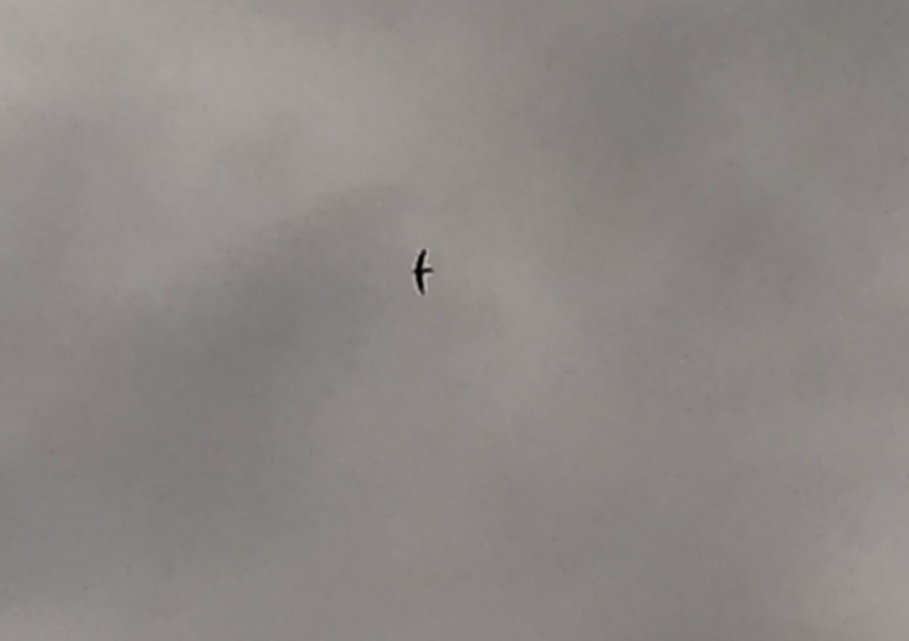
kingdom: Animalia
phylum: Chordata
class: Aves
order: Apodiformes
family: Apodidae
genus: Apus
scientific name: Apus apus
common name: Common swift
